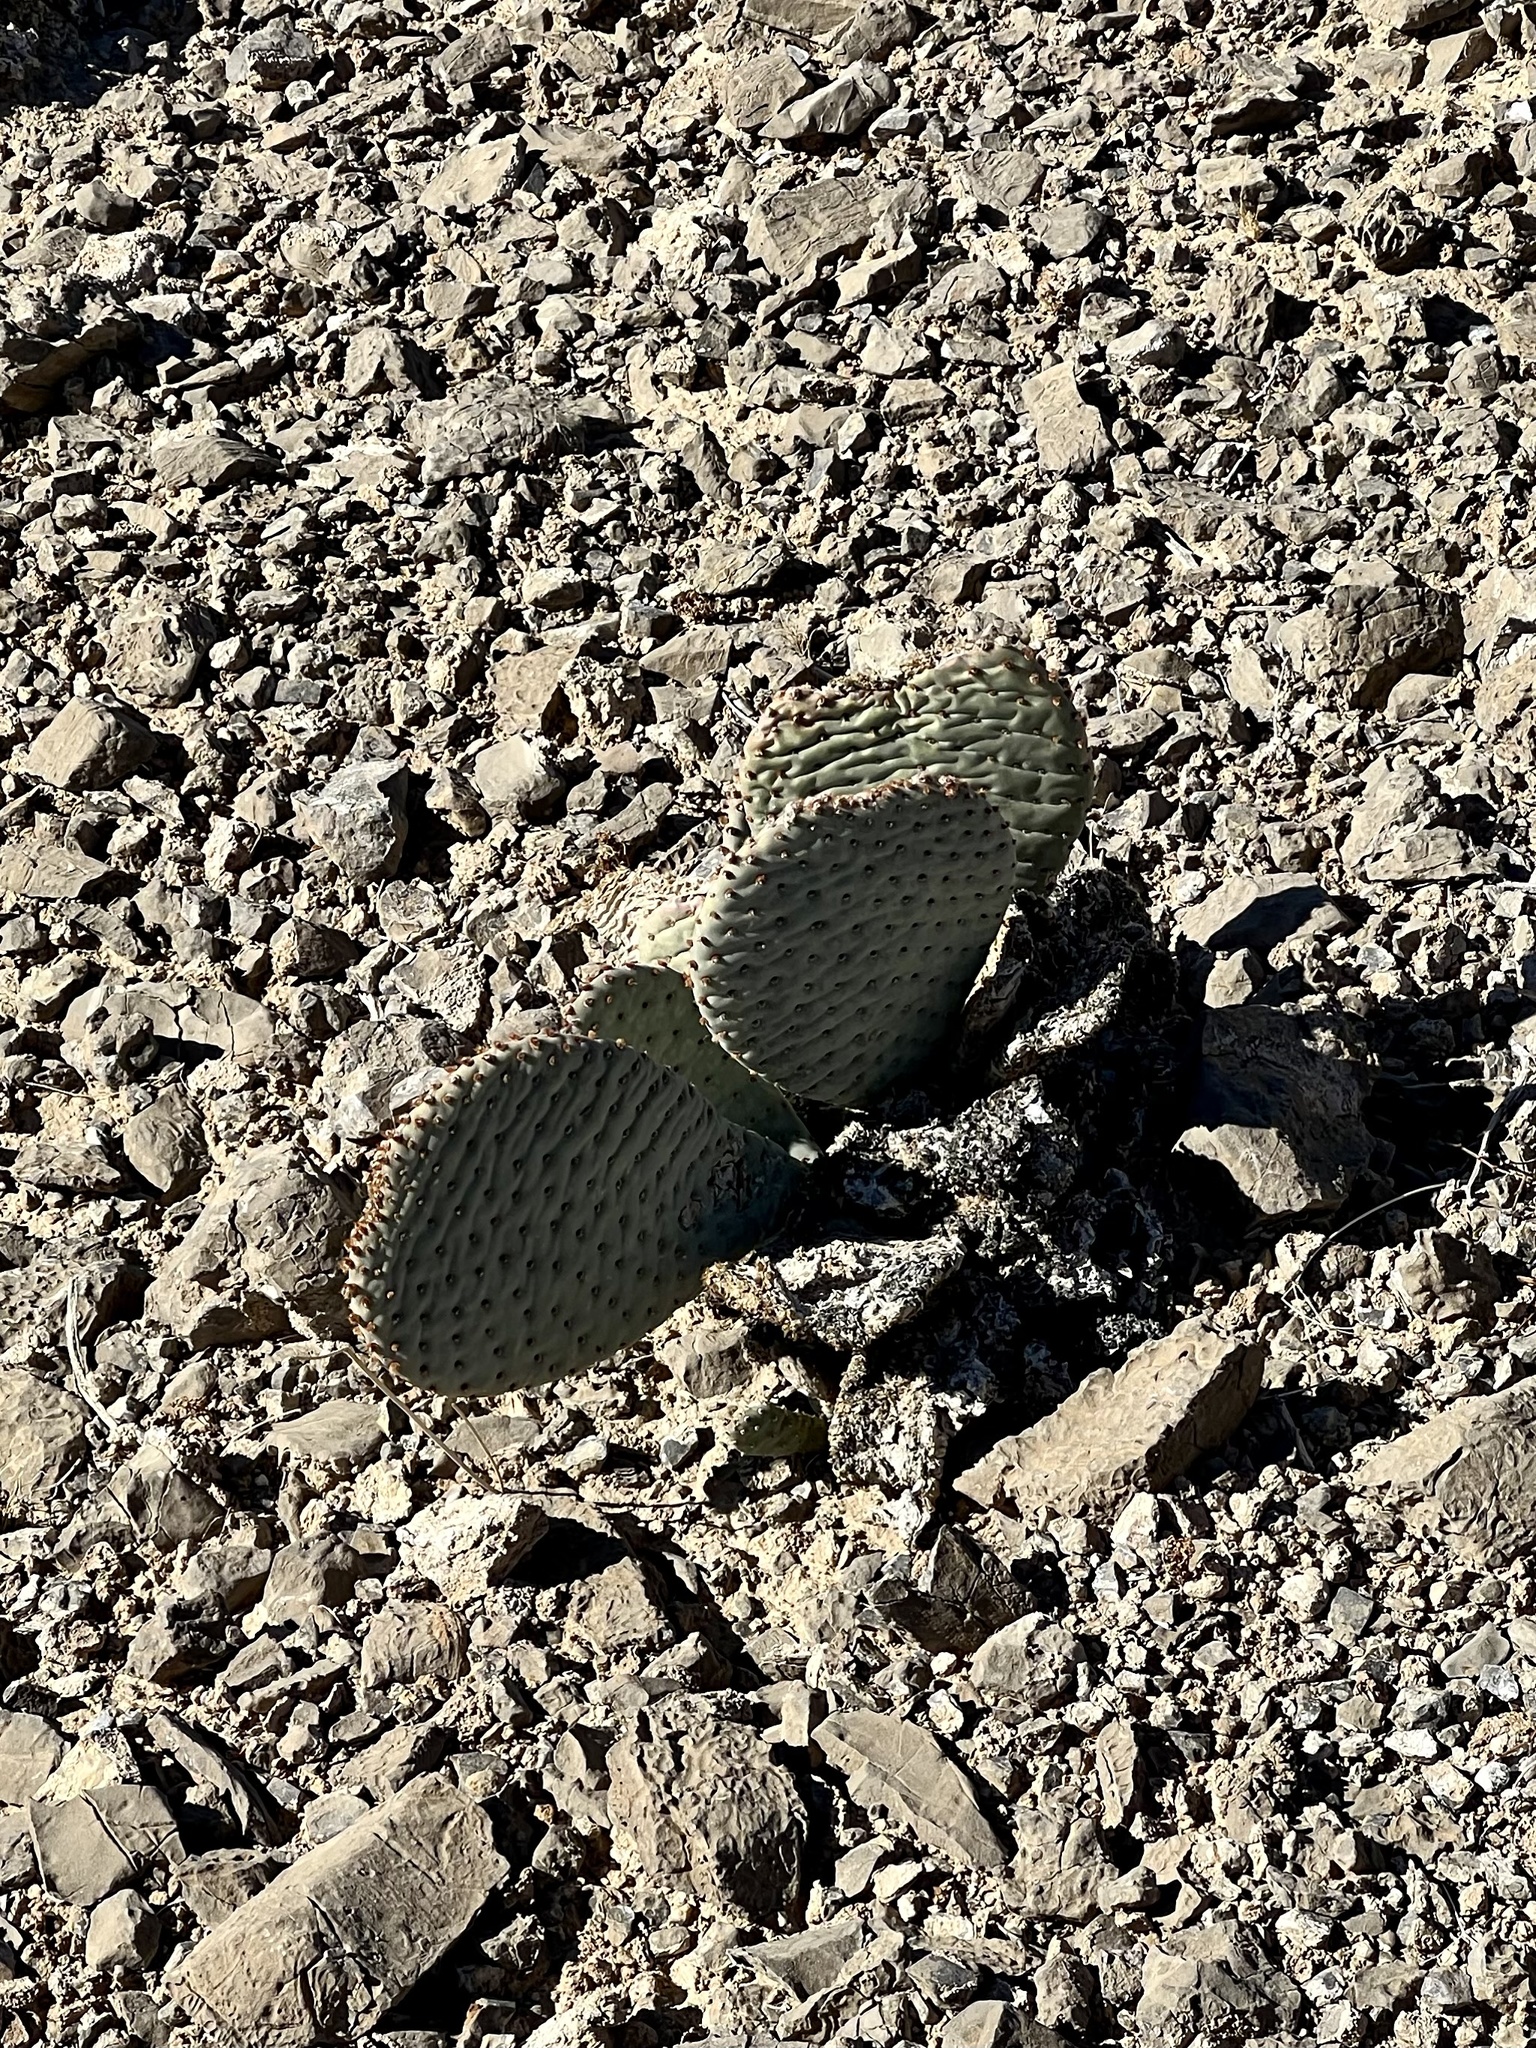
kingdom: Plantae
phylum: Tracheophyta
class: Magnoliopsida
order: Caryophyllales
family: Cactaceae
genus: Opuntia
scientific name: Opuntia basilaris
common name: Beavertail prickly-pear
